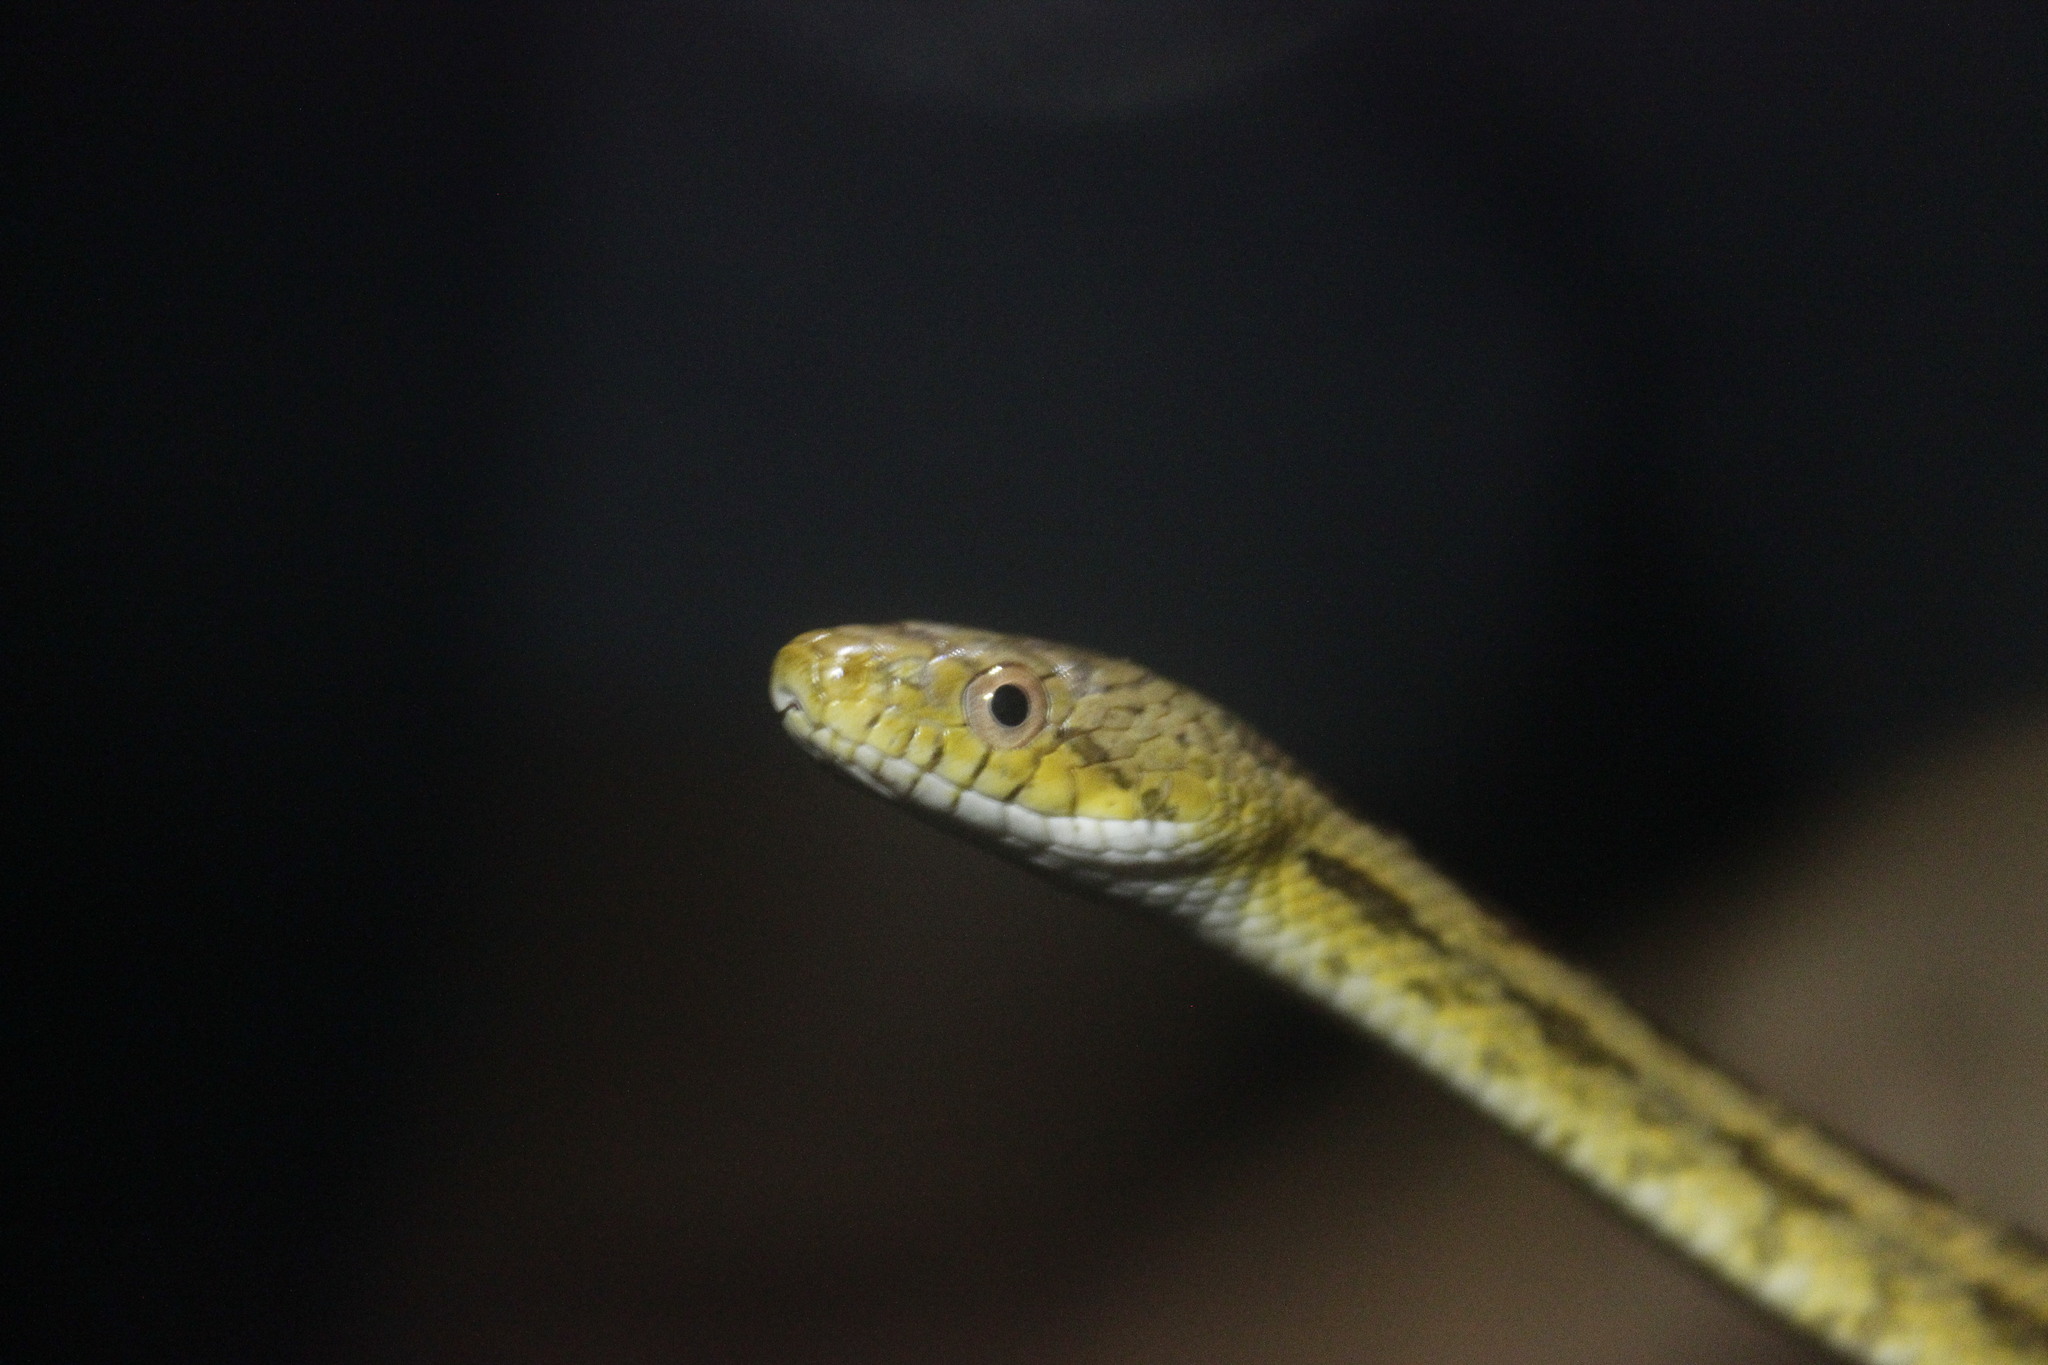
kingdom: Animalia
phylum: Chordata
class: Squamata
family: Colubridae
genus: Pantherophis
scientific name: Pantherophis alleghaniensis
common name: Eastern rat snake
